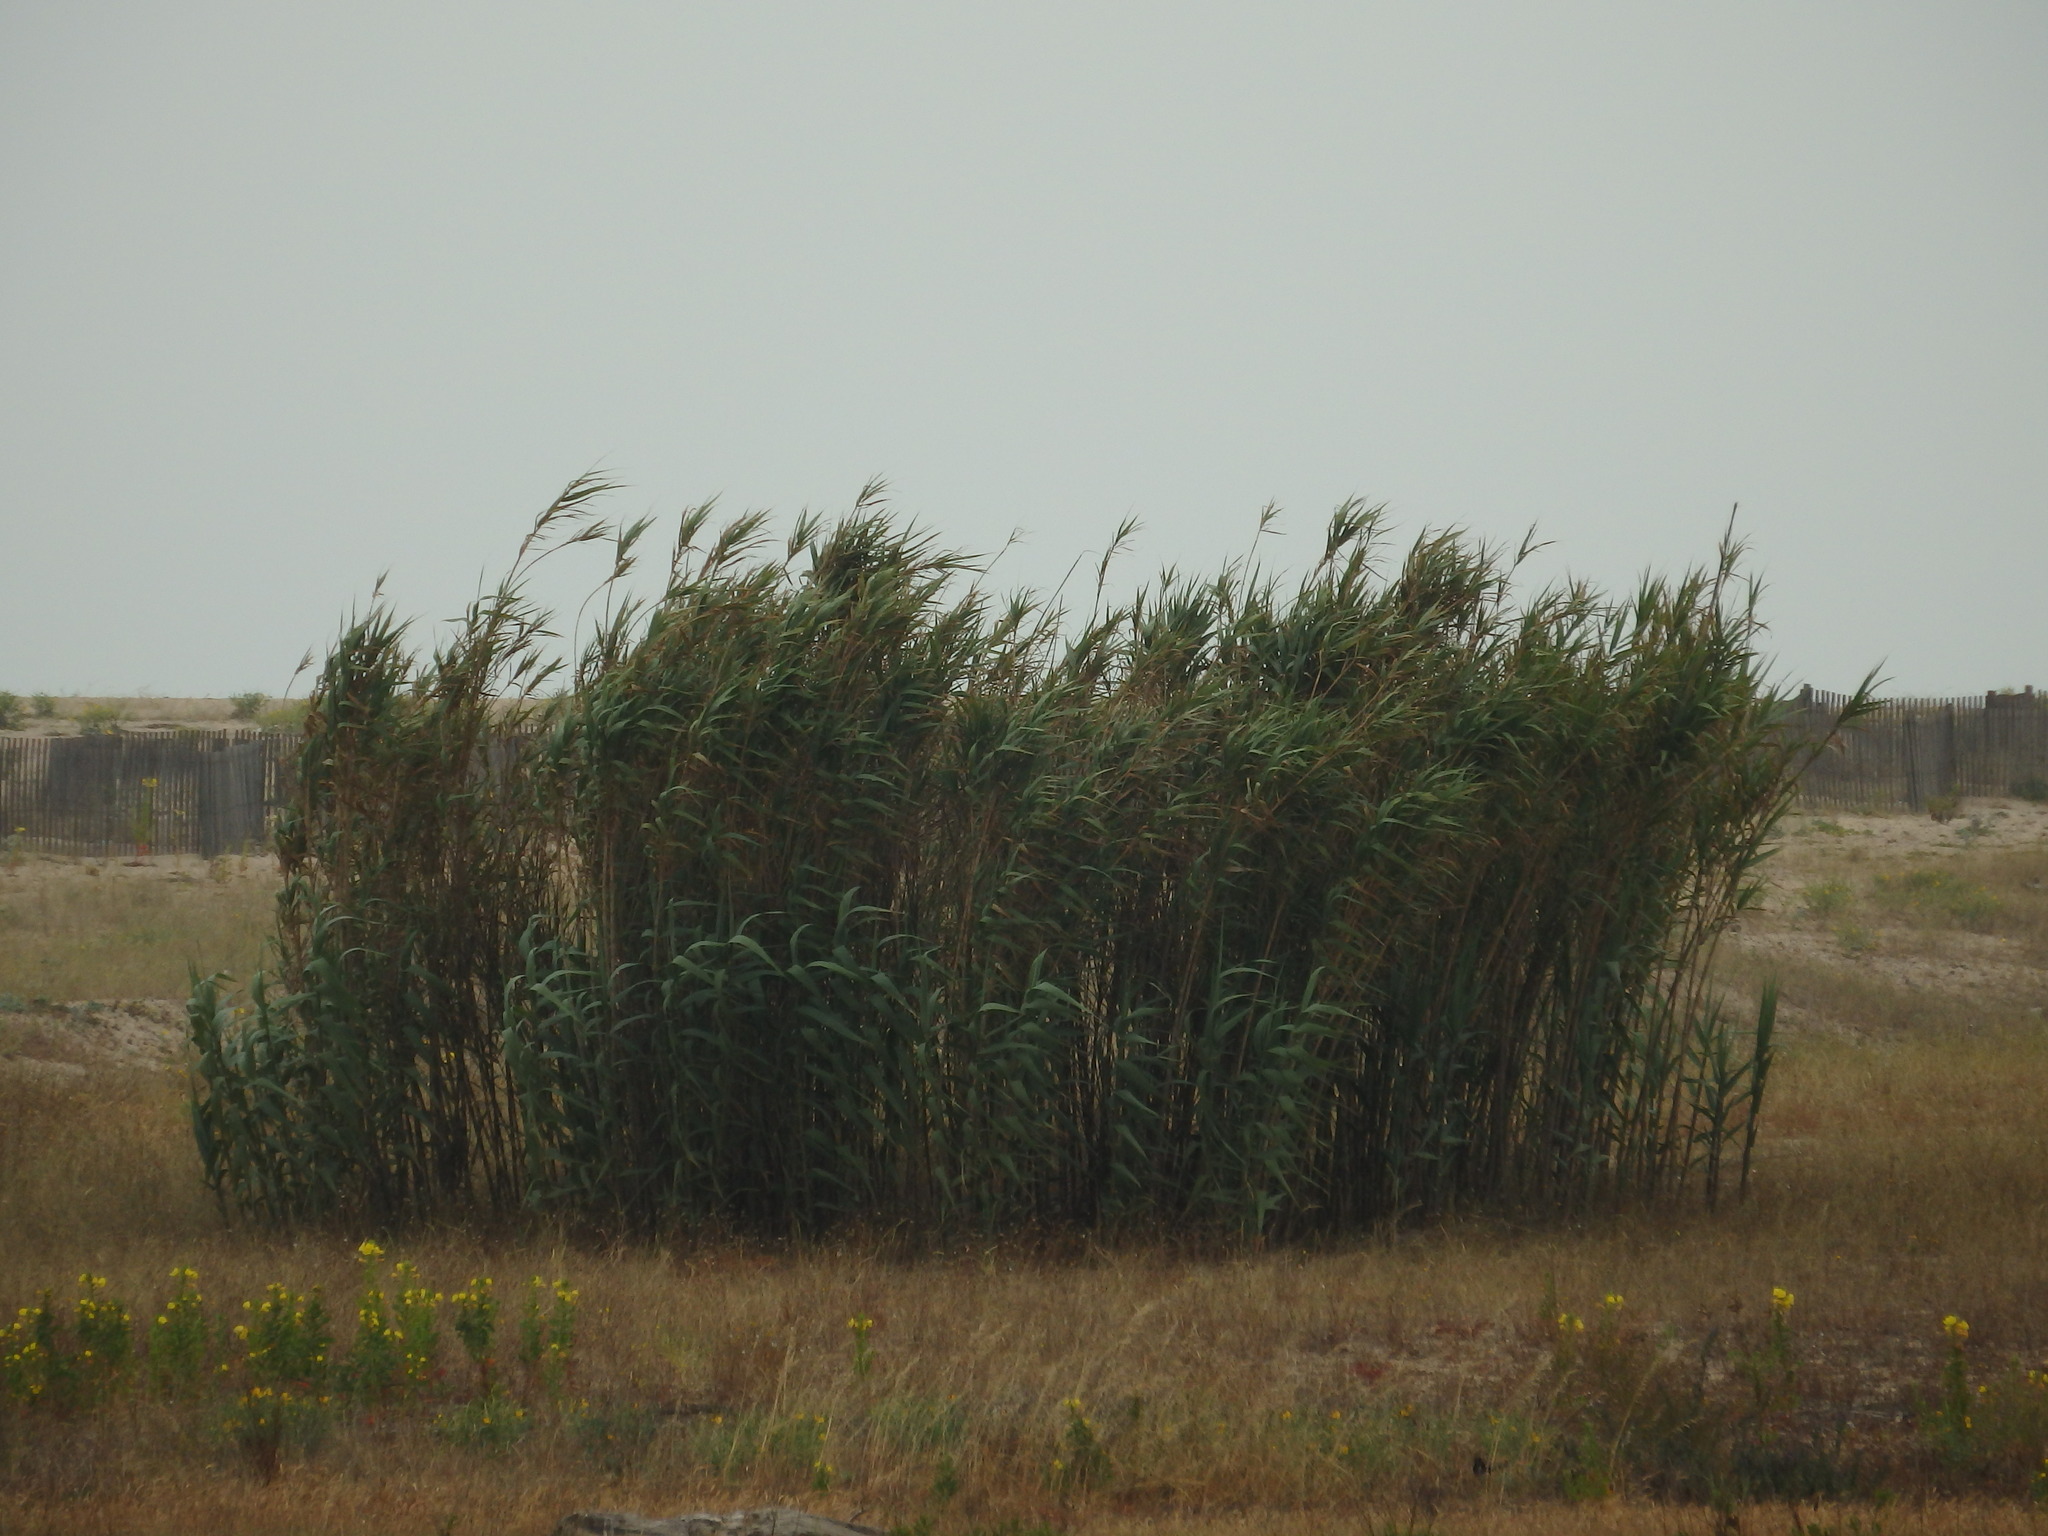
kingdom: Plantae
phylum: Tracheophyta
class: Liliopsida
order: Poales
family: Poaceae
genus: Arundo
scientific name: Arundo donax
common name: Giant reed
